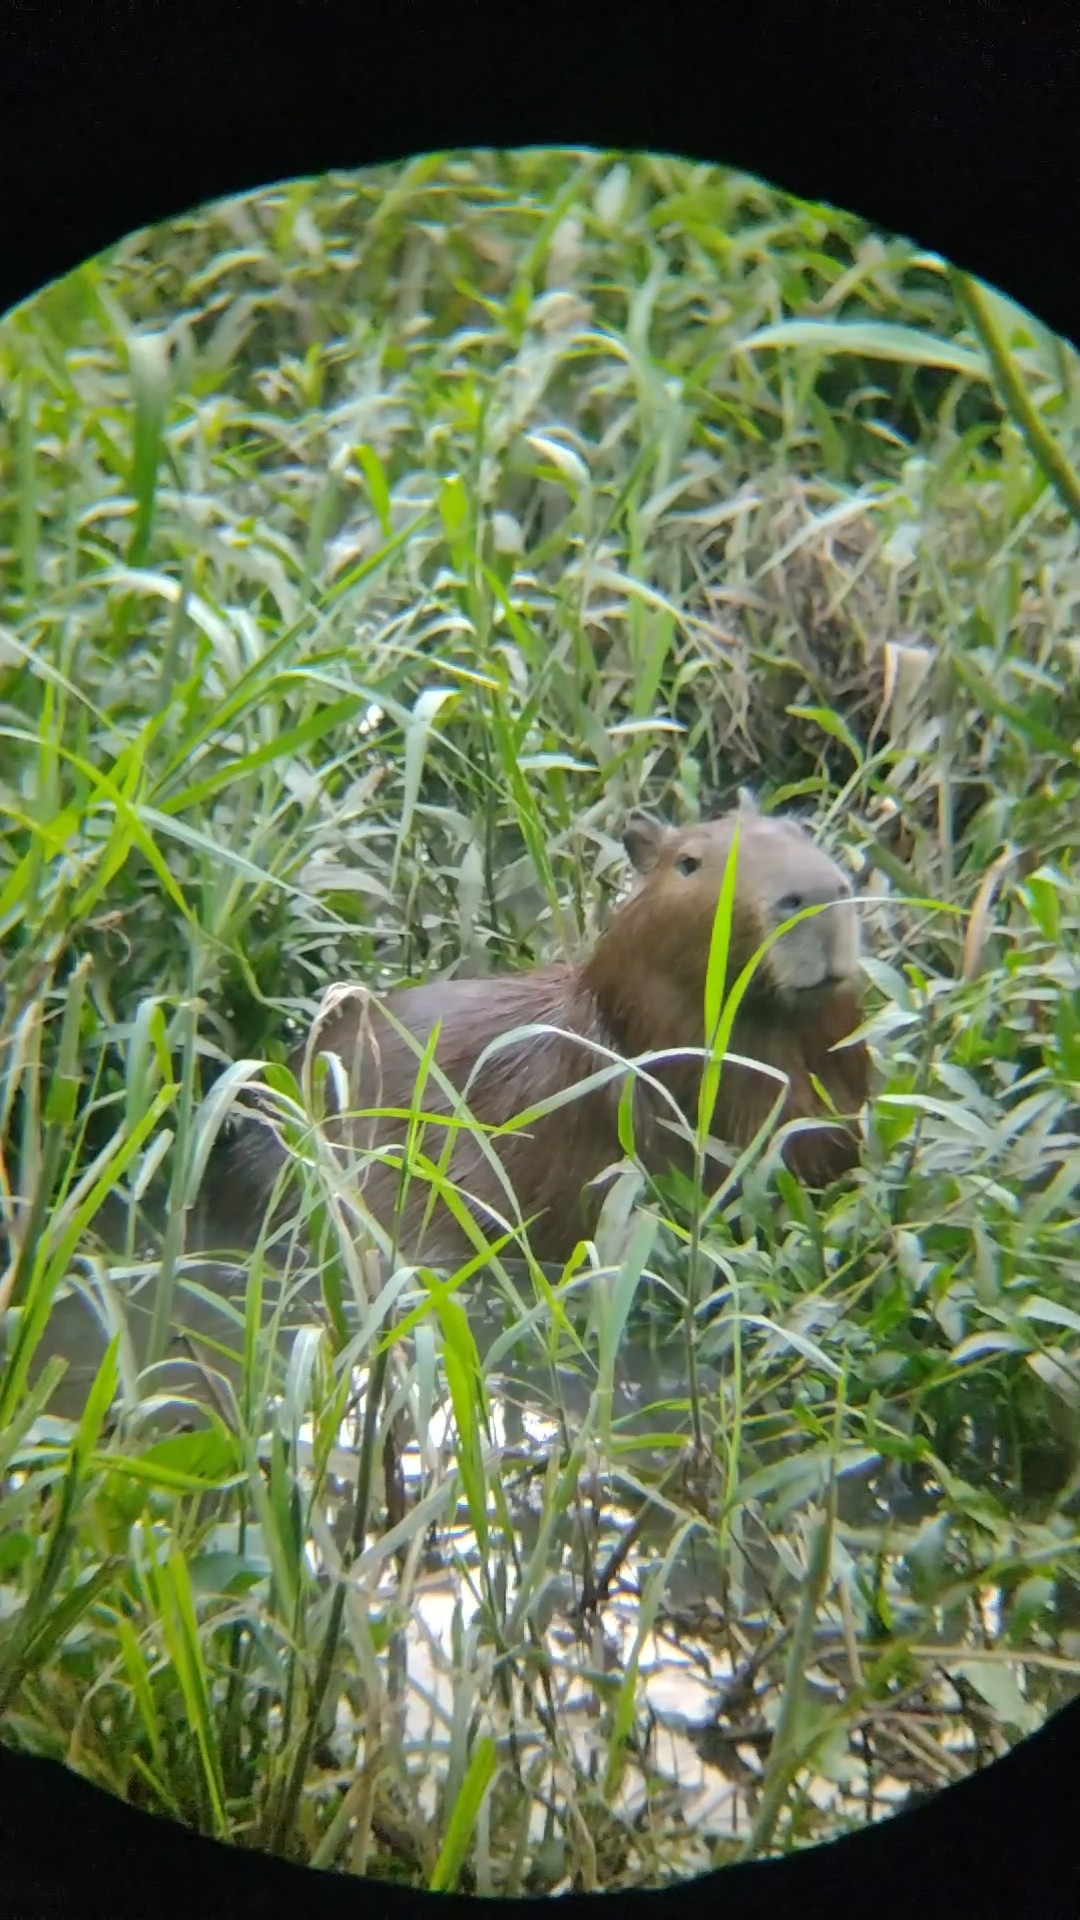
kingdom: Animalia
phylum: Chordata
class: Mammalia
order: Rodentia
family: Caviidae
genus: Hydrochoerus
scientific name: Hydrochoerus hydrochaeris
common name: Capybara
